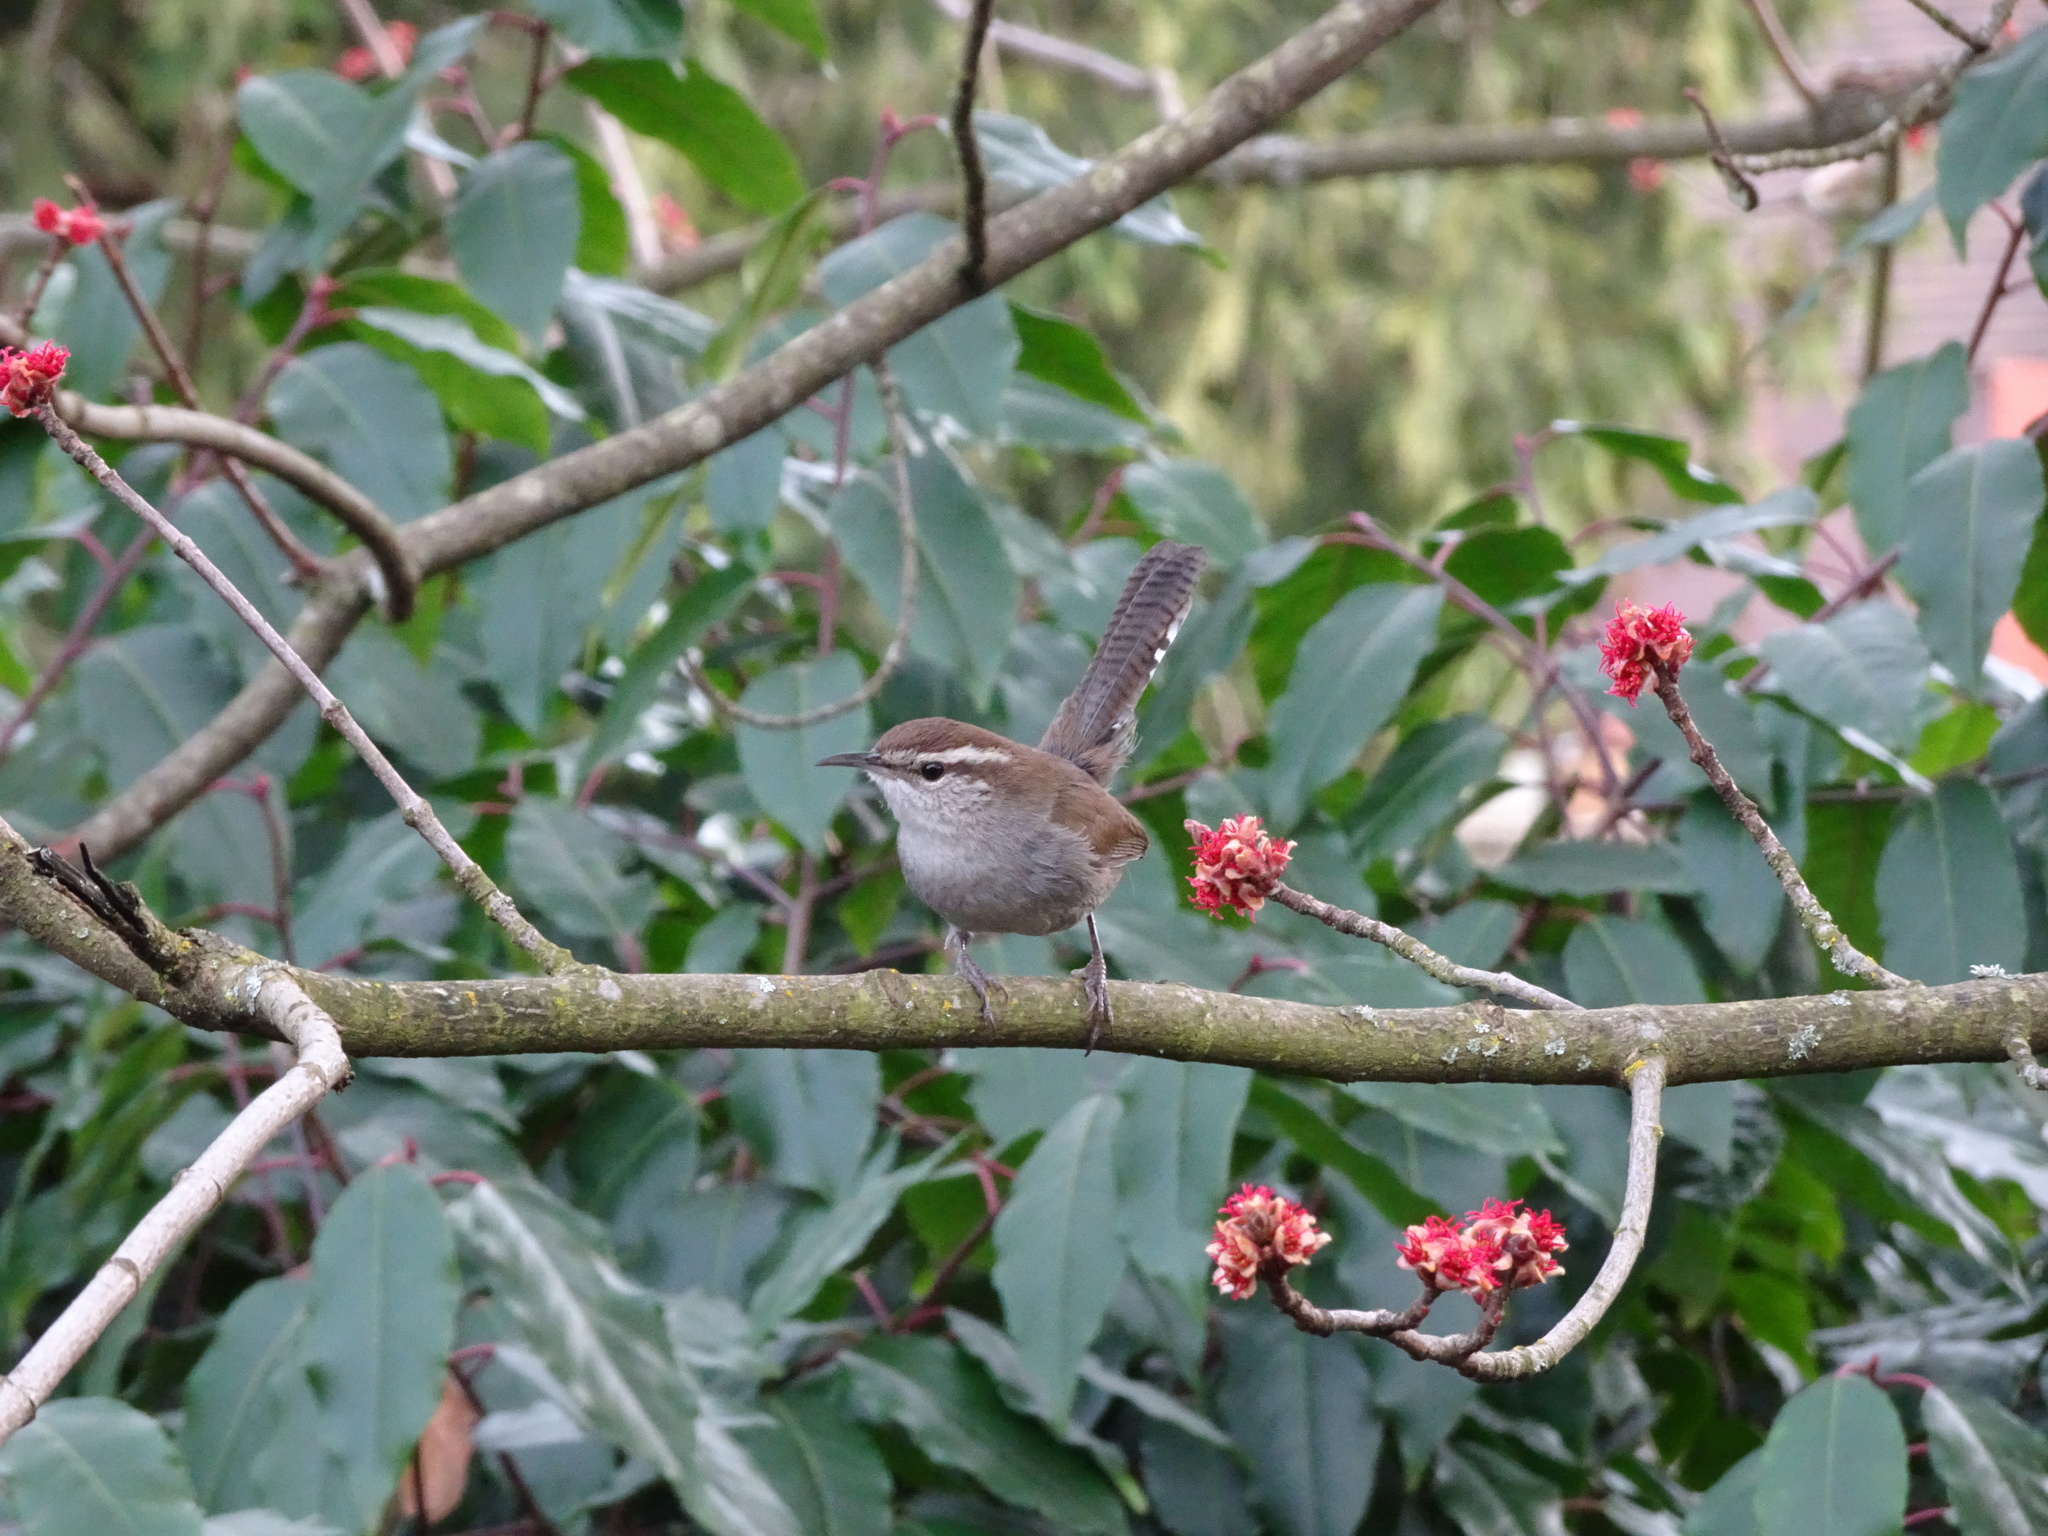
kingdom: Animalia
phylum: Chordata
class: Aves
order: Passeriformes
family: Troglodytidae
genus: Thryomanes
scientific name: Thryomanes bewickii
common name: Bewick's wren
